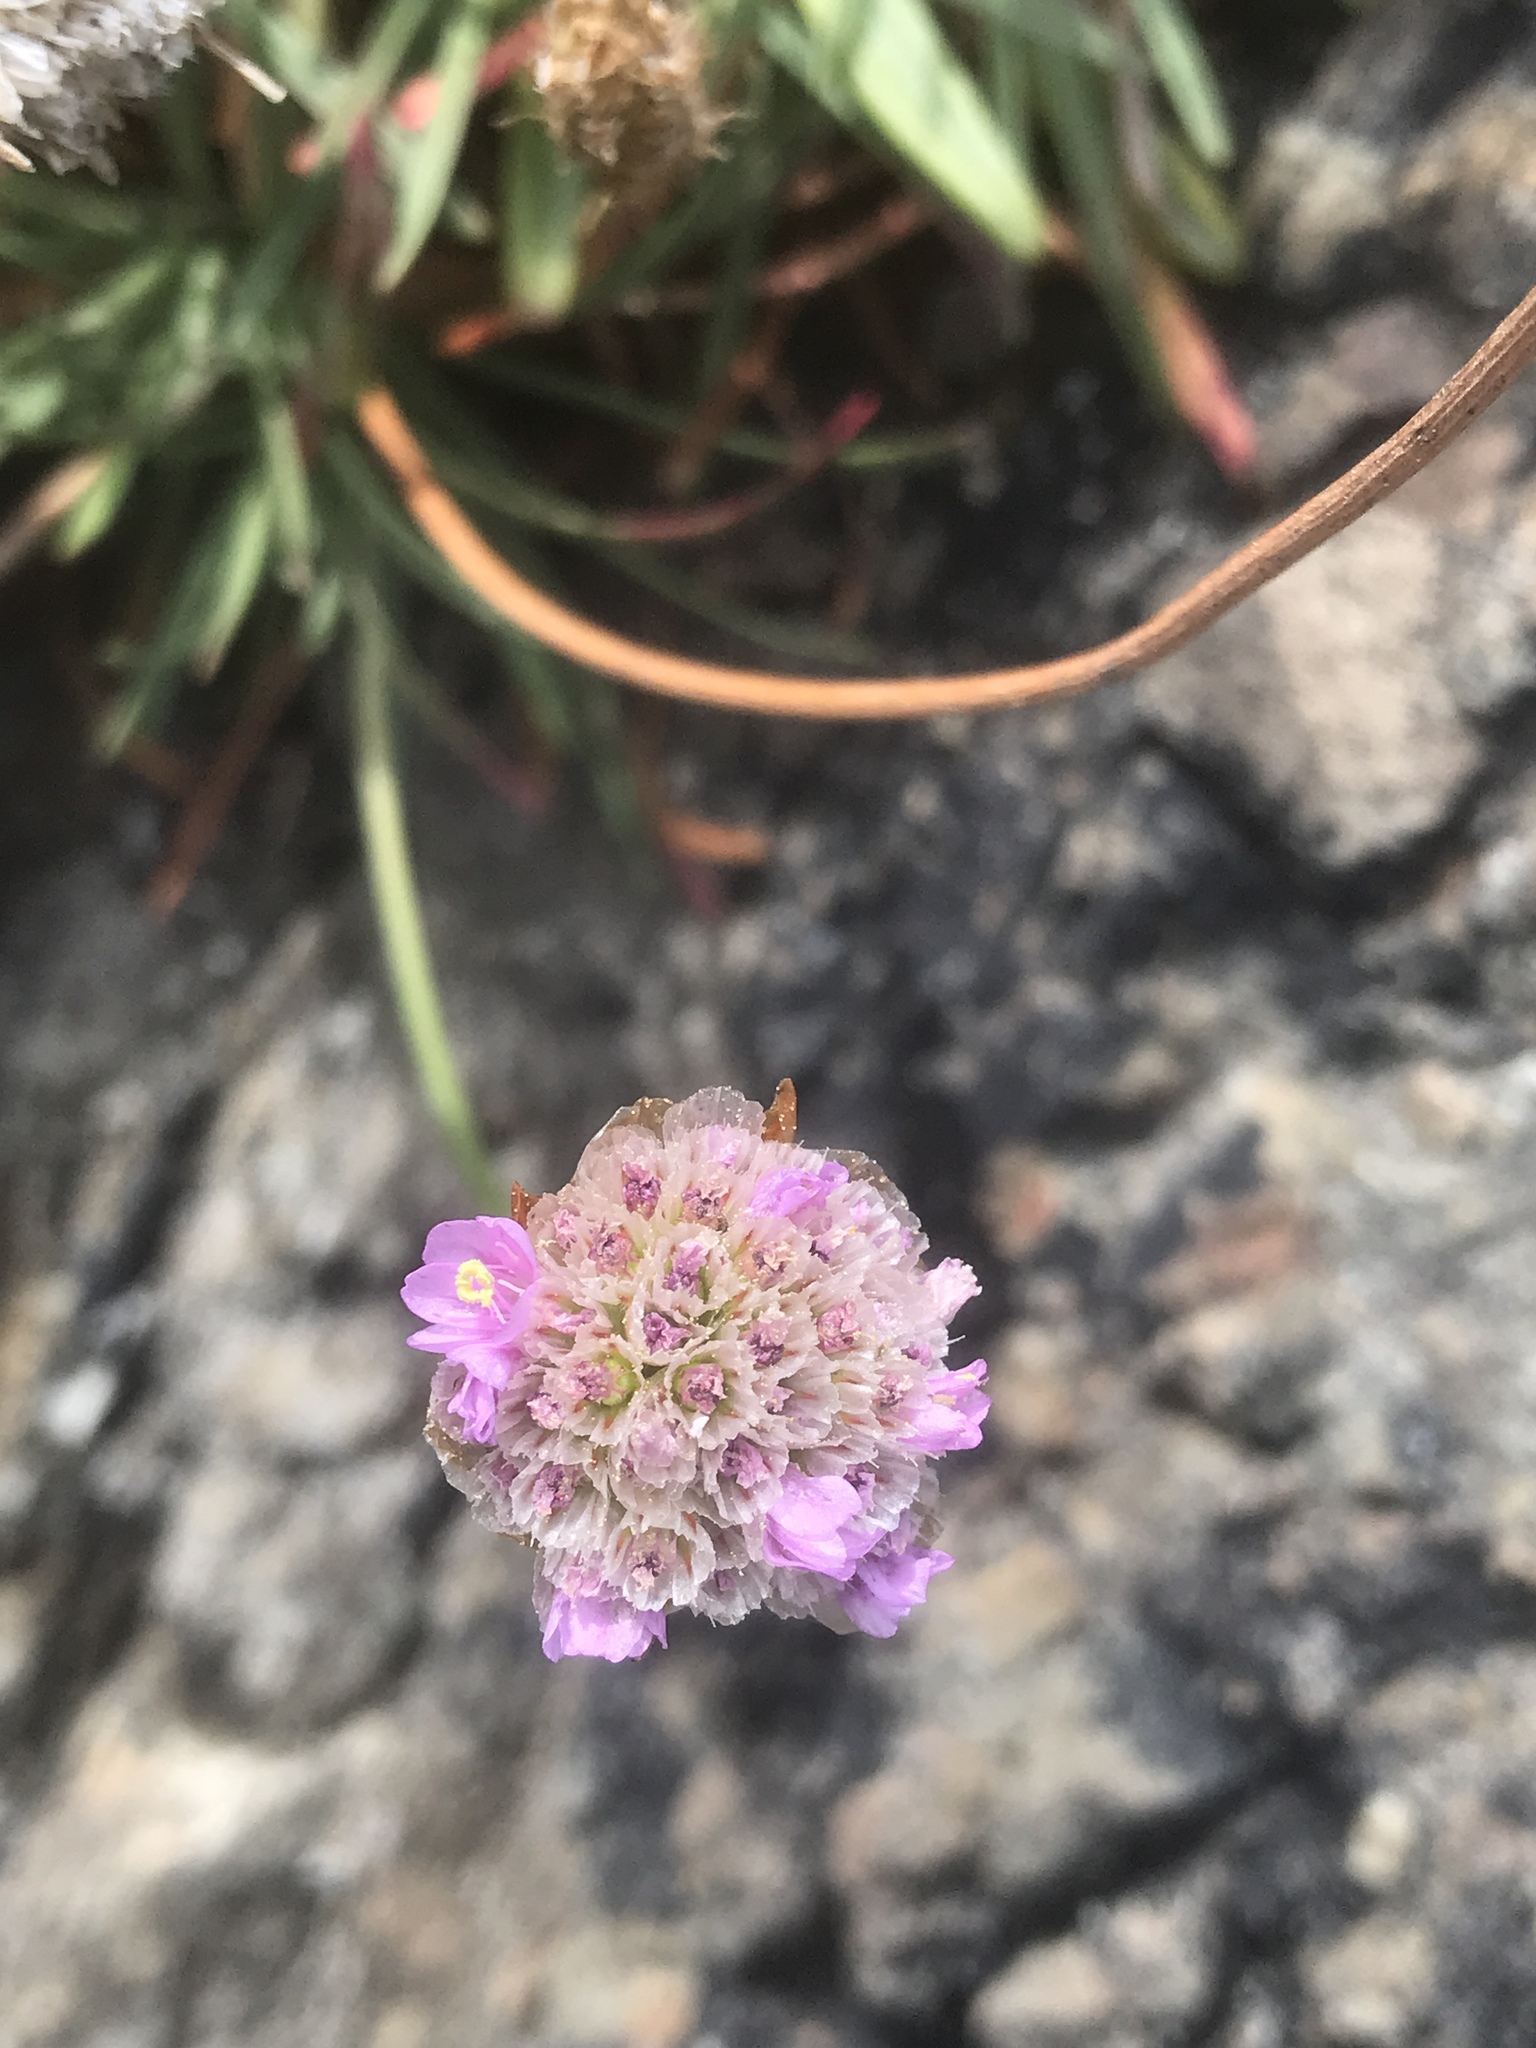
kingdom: Plantae
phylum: Tracheophyta
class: Magnoliopsida
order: Caryophyllales
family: Plumbaginaceae
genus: Armeria
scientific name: Armeria maritima
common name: Thrift
